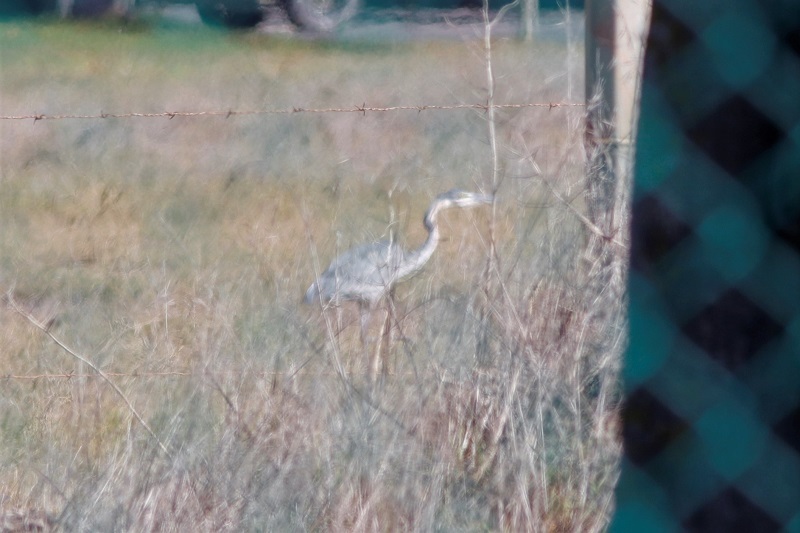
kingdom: Animalia
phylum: Chordata
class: Aves
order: Pelecaniformes
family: Ardeidae
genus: Ardea
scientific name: Ardea melanocephala
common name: Black-headed heron
